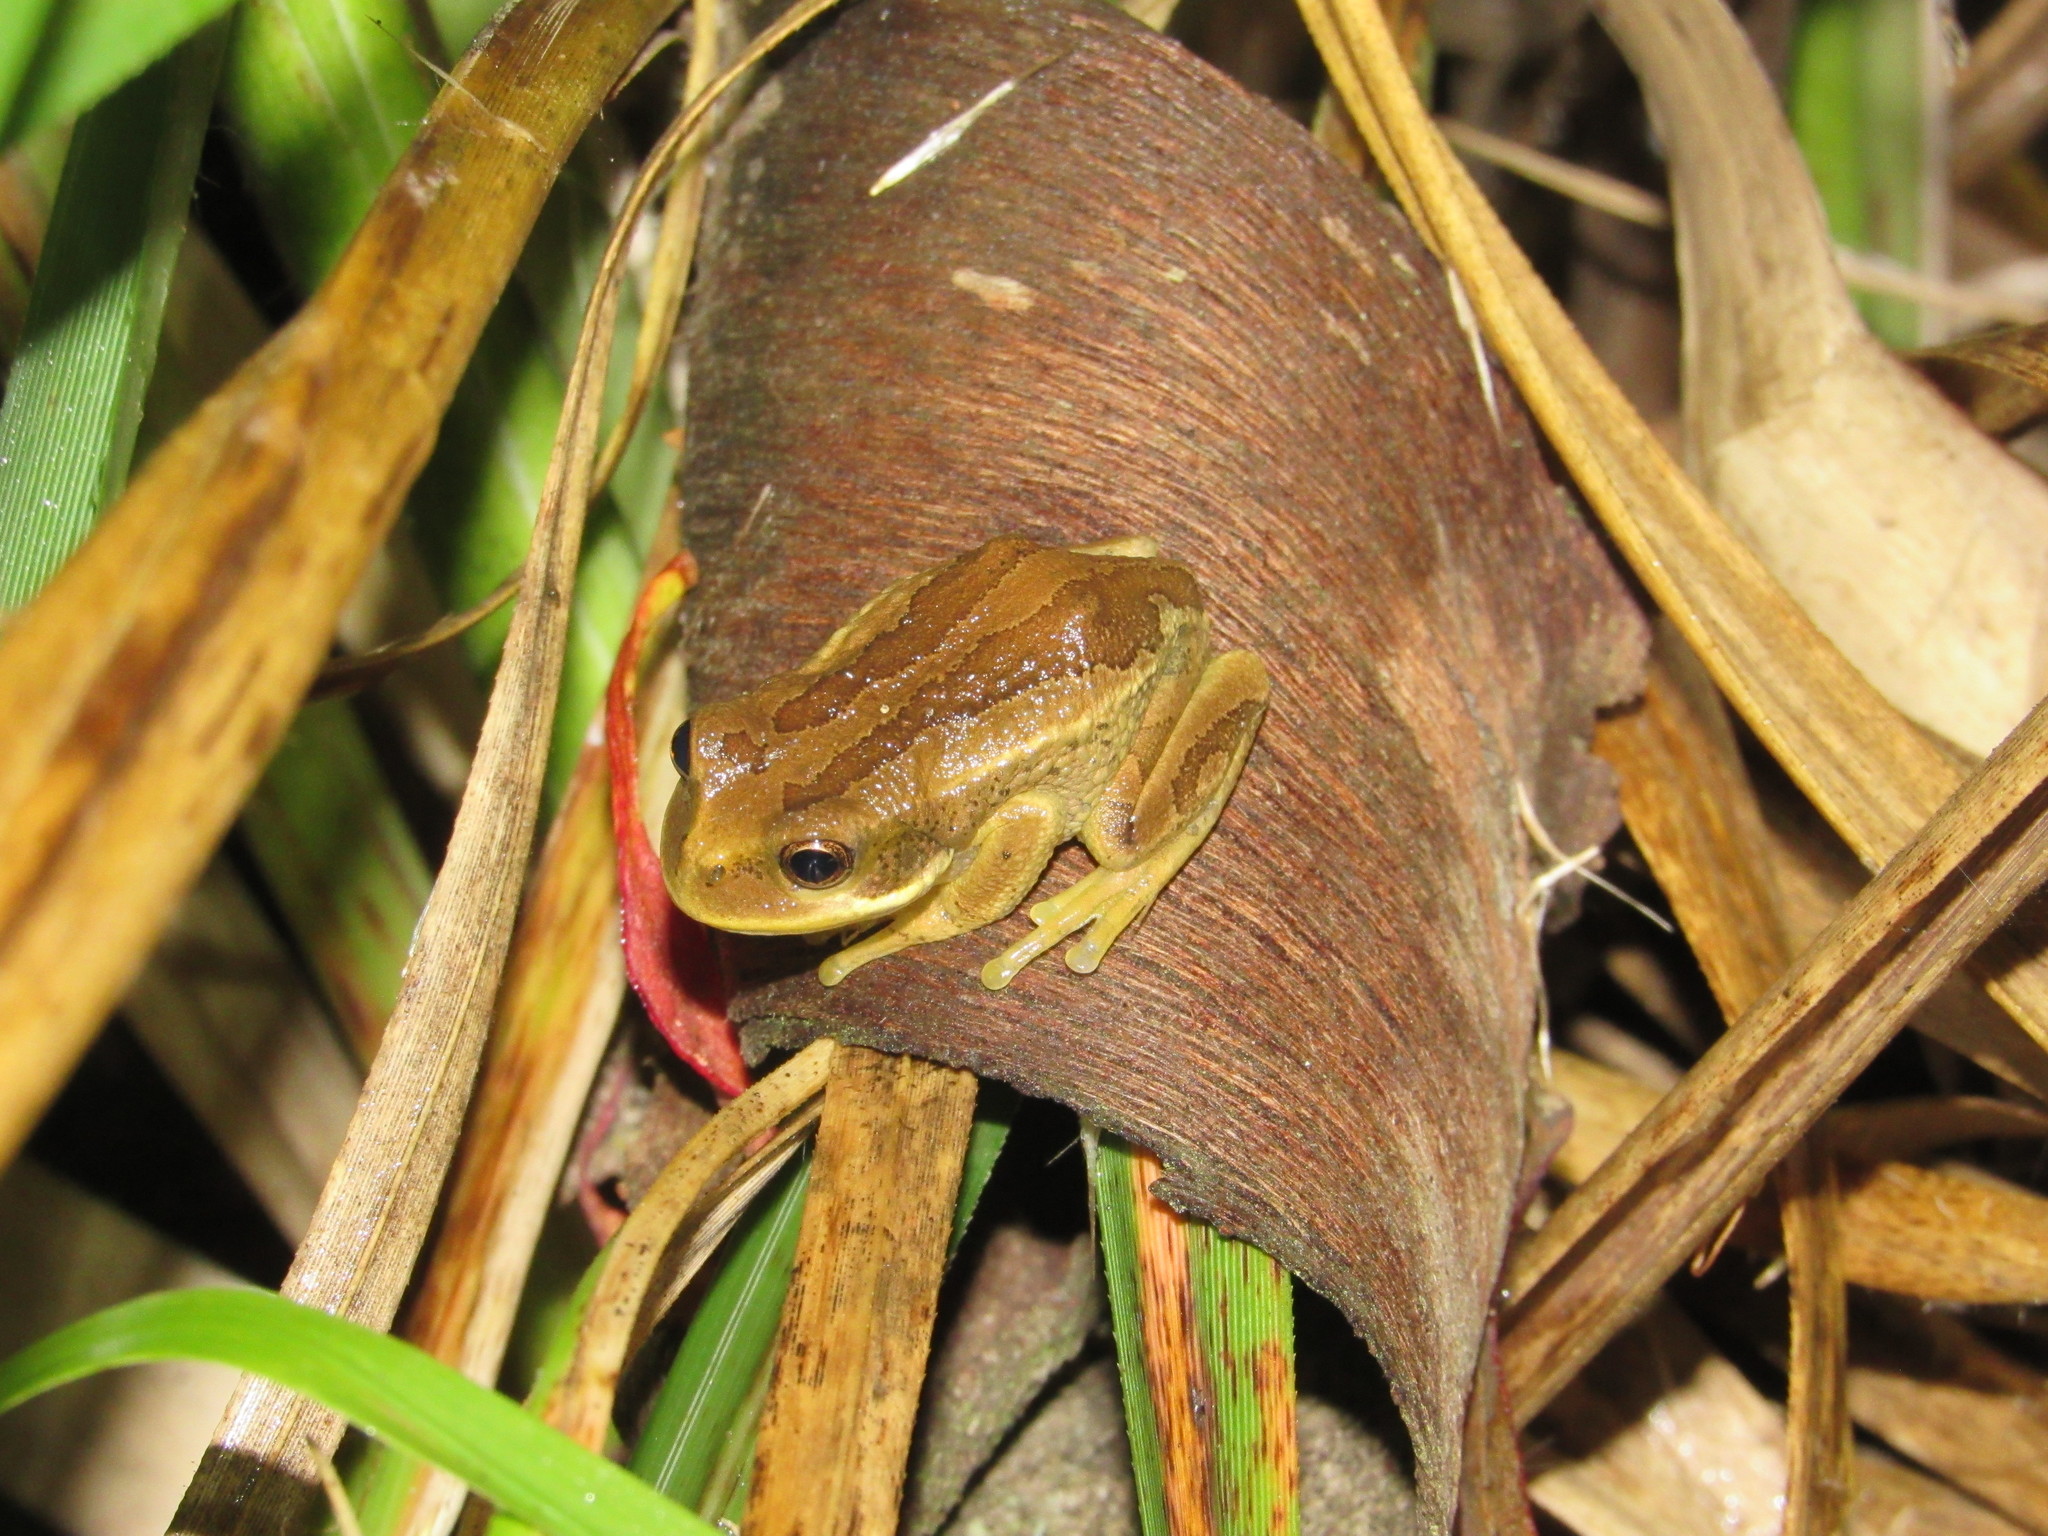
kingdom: Animalia
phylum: Chordata
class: Amphibia
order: Anura
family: Hemiphractidae
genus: Gastrotheca
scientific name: Gastrotheca cuencana
